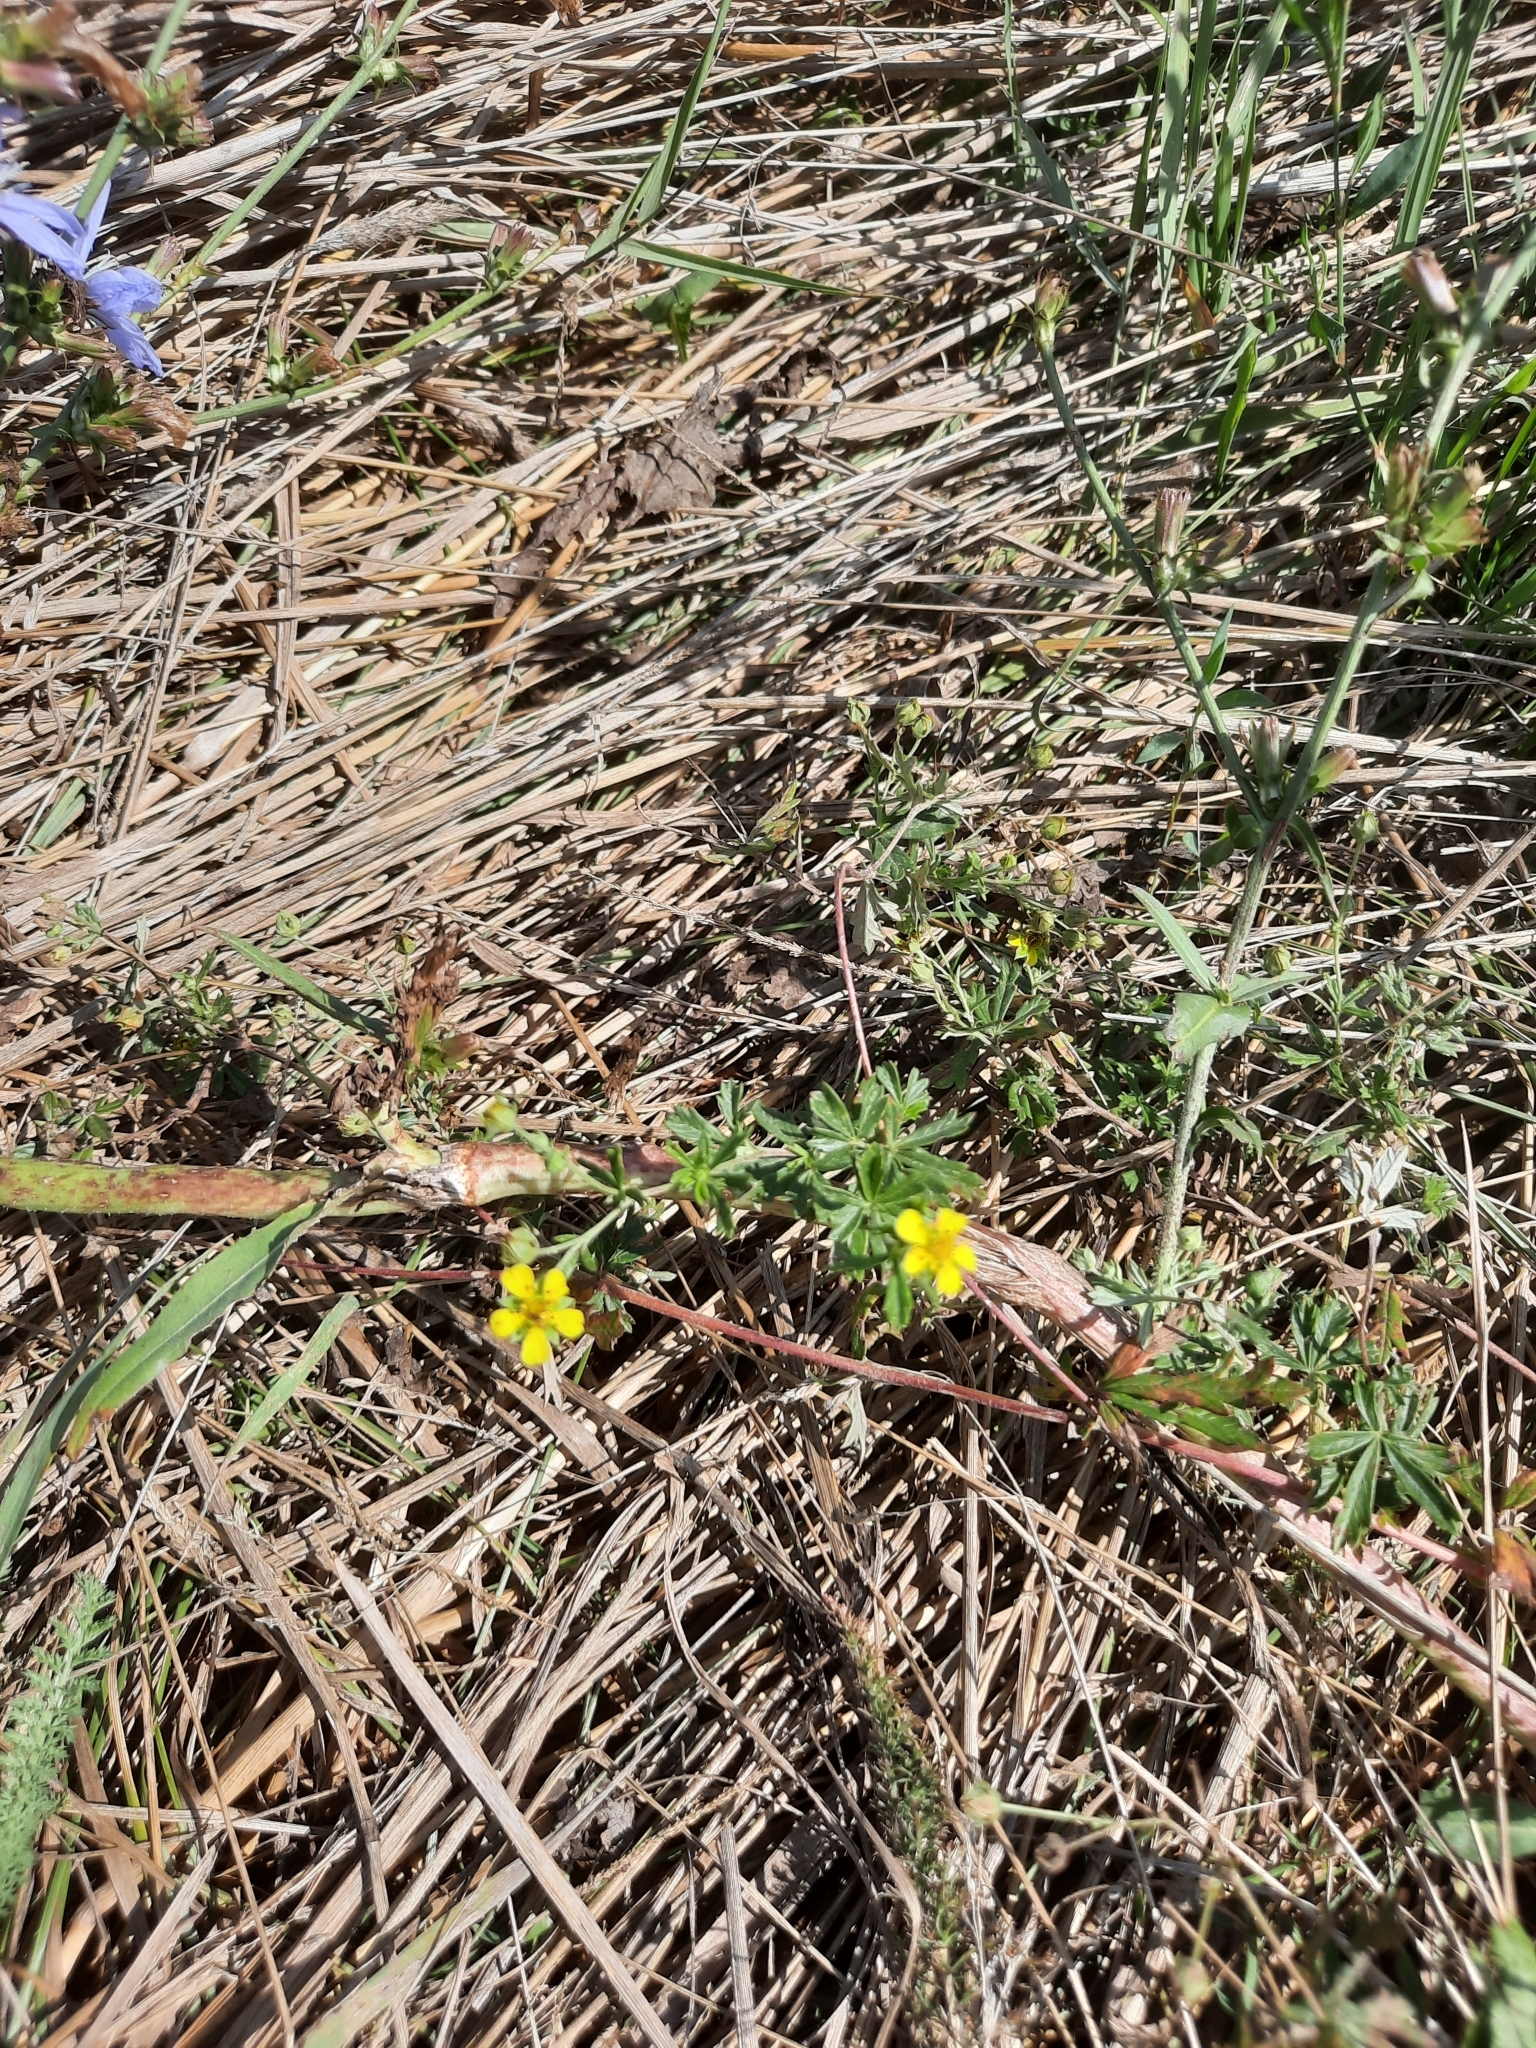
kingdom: Plantae
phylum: Tracheophyta
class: Magnoliopsida
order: Rosales
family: Rosaceae
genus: Potentilla
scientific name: Potentilla argentea
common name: Hoary cinquefoil
